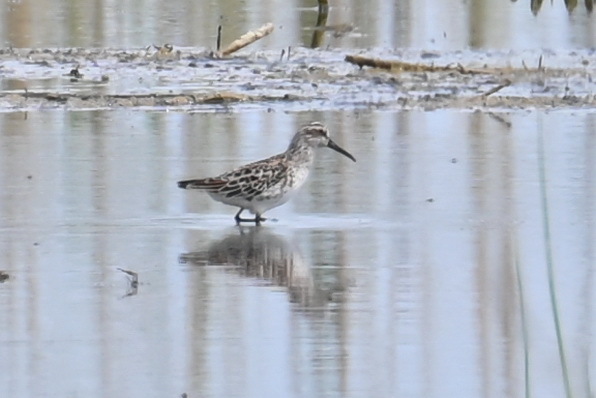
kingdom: Animalia
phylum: Chordata
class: Aves
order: Charadriiformes
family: Scolopacidae
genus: Calidris
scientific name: Calidris falcinellus
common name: Broad-billed sandpiper
